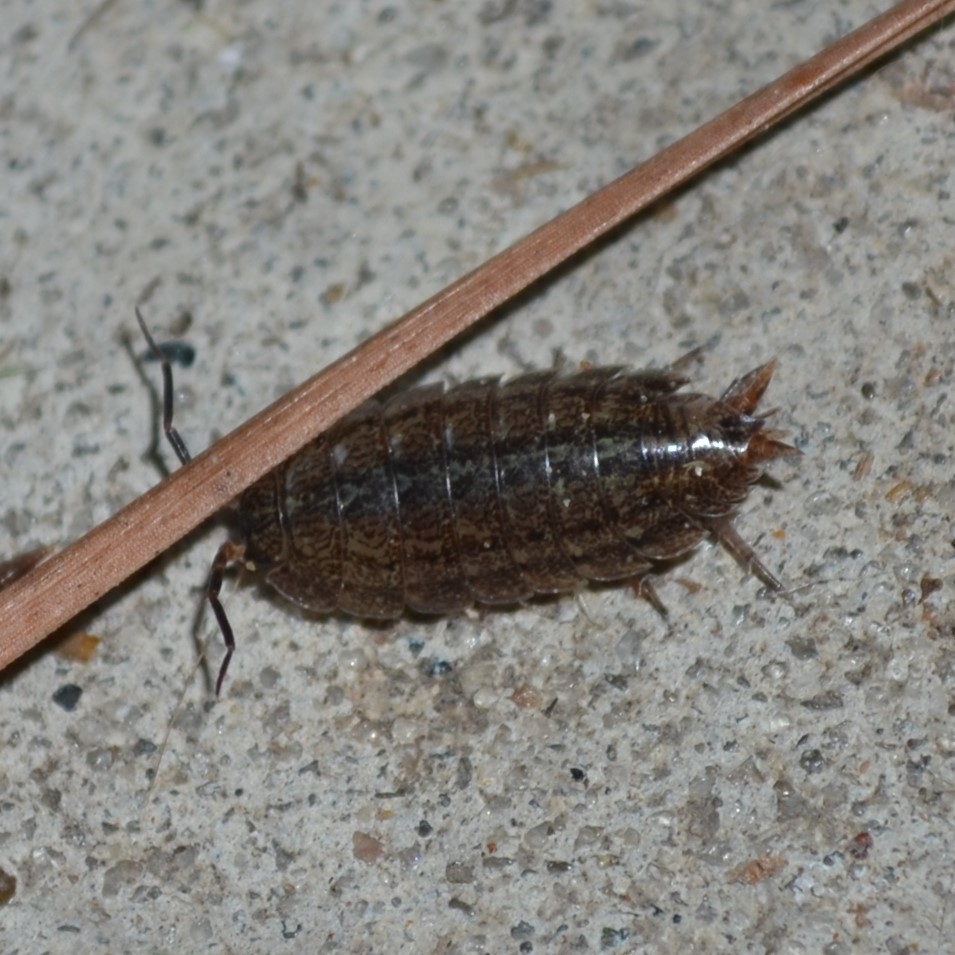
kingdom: Animalia
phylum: Arthropoda
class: Malacostraca
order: Isopoda
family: Porcellionidae
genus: Porcellionides
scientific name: Porcellionides virgatus
